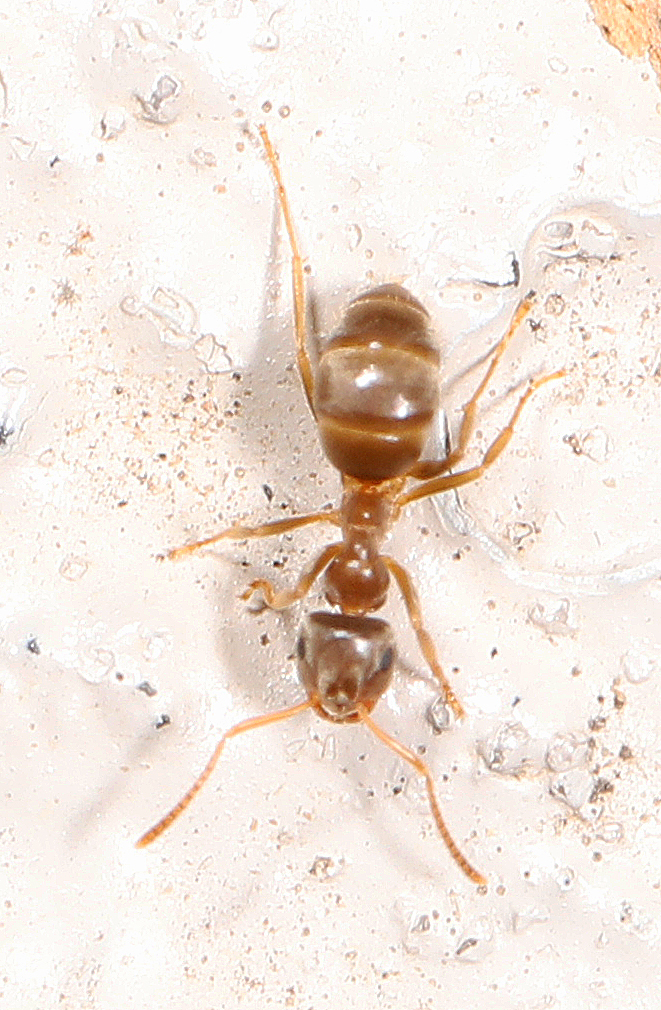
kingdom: Animalia
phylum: Arthropoda
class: Insecta
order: Hymenoptera
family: Formicidae
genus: Lasius
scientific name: Lasius neoniger
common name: Turfgrass ant
